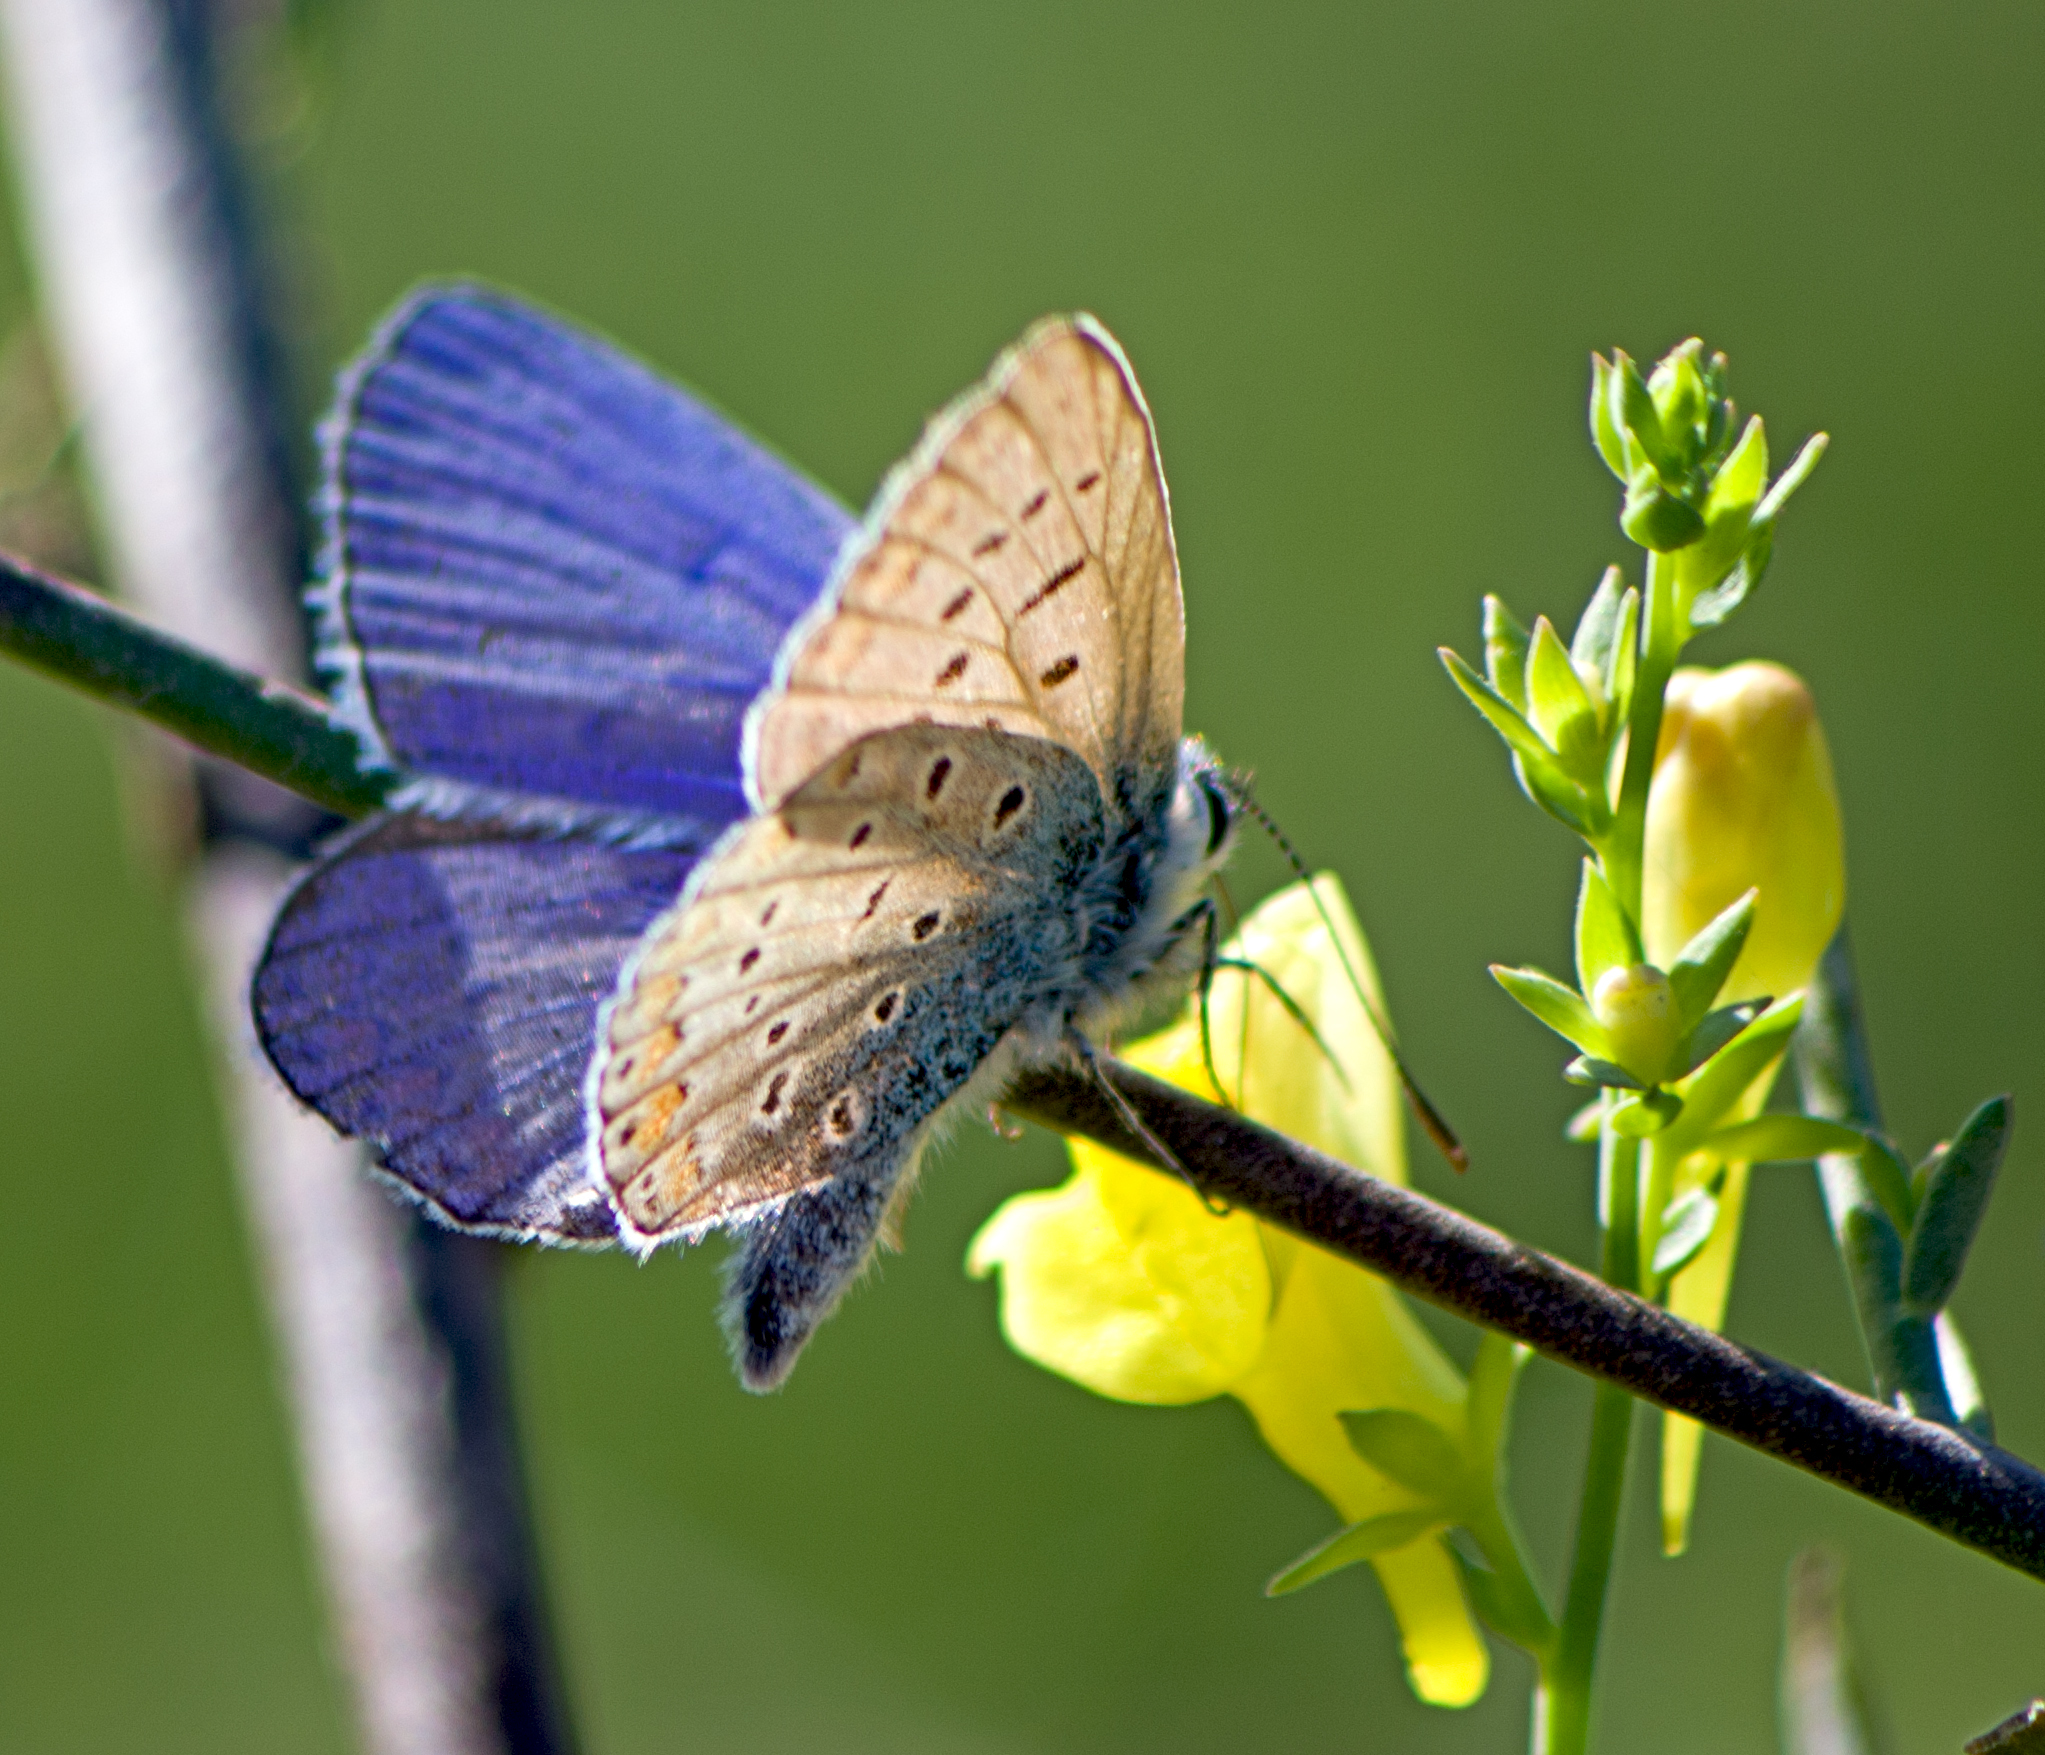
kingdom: Animalia
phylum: Arthropoda
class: Insecta
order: Lepidoptera
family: Lycaenidae
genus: Polyommatus
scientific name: Polyommatus icarus
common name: Common blue
